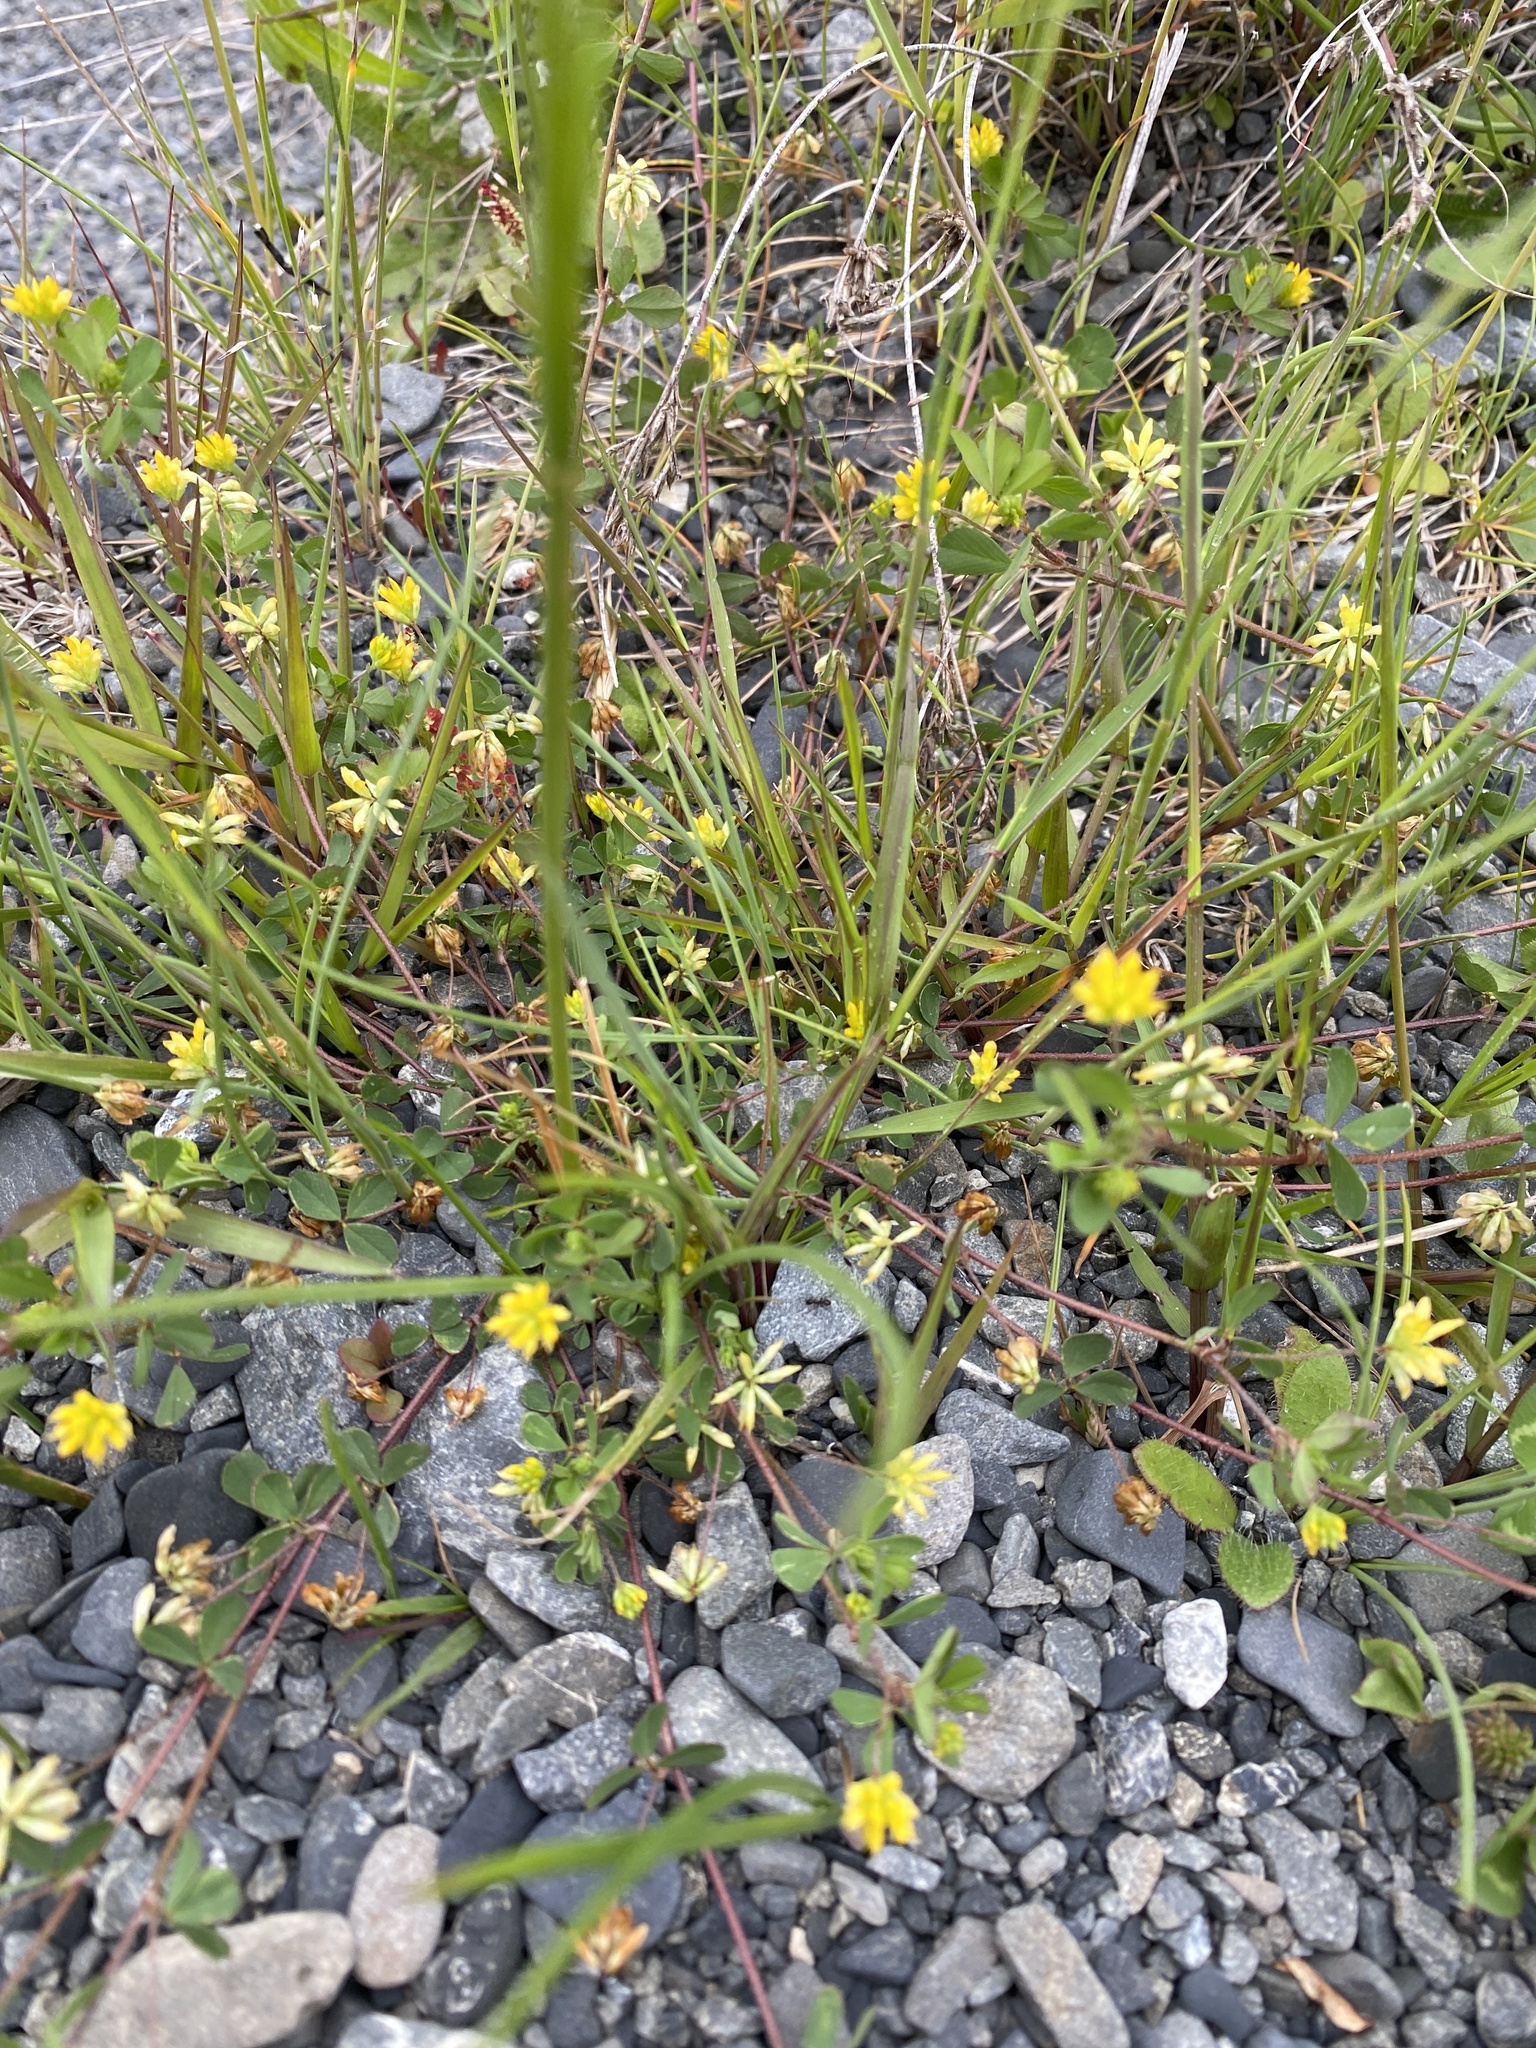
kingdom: Plantae
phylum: Tracheophyta
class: Magnoliopsida
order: Fabales
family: Fabaceae
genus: Trifolium
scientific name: Trifolium dubium
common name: Suckling clover
